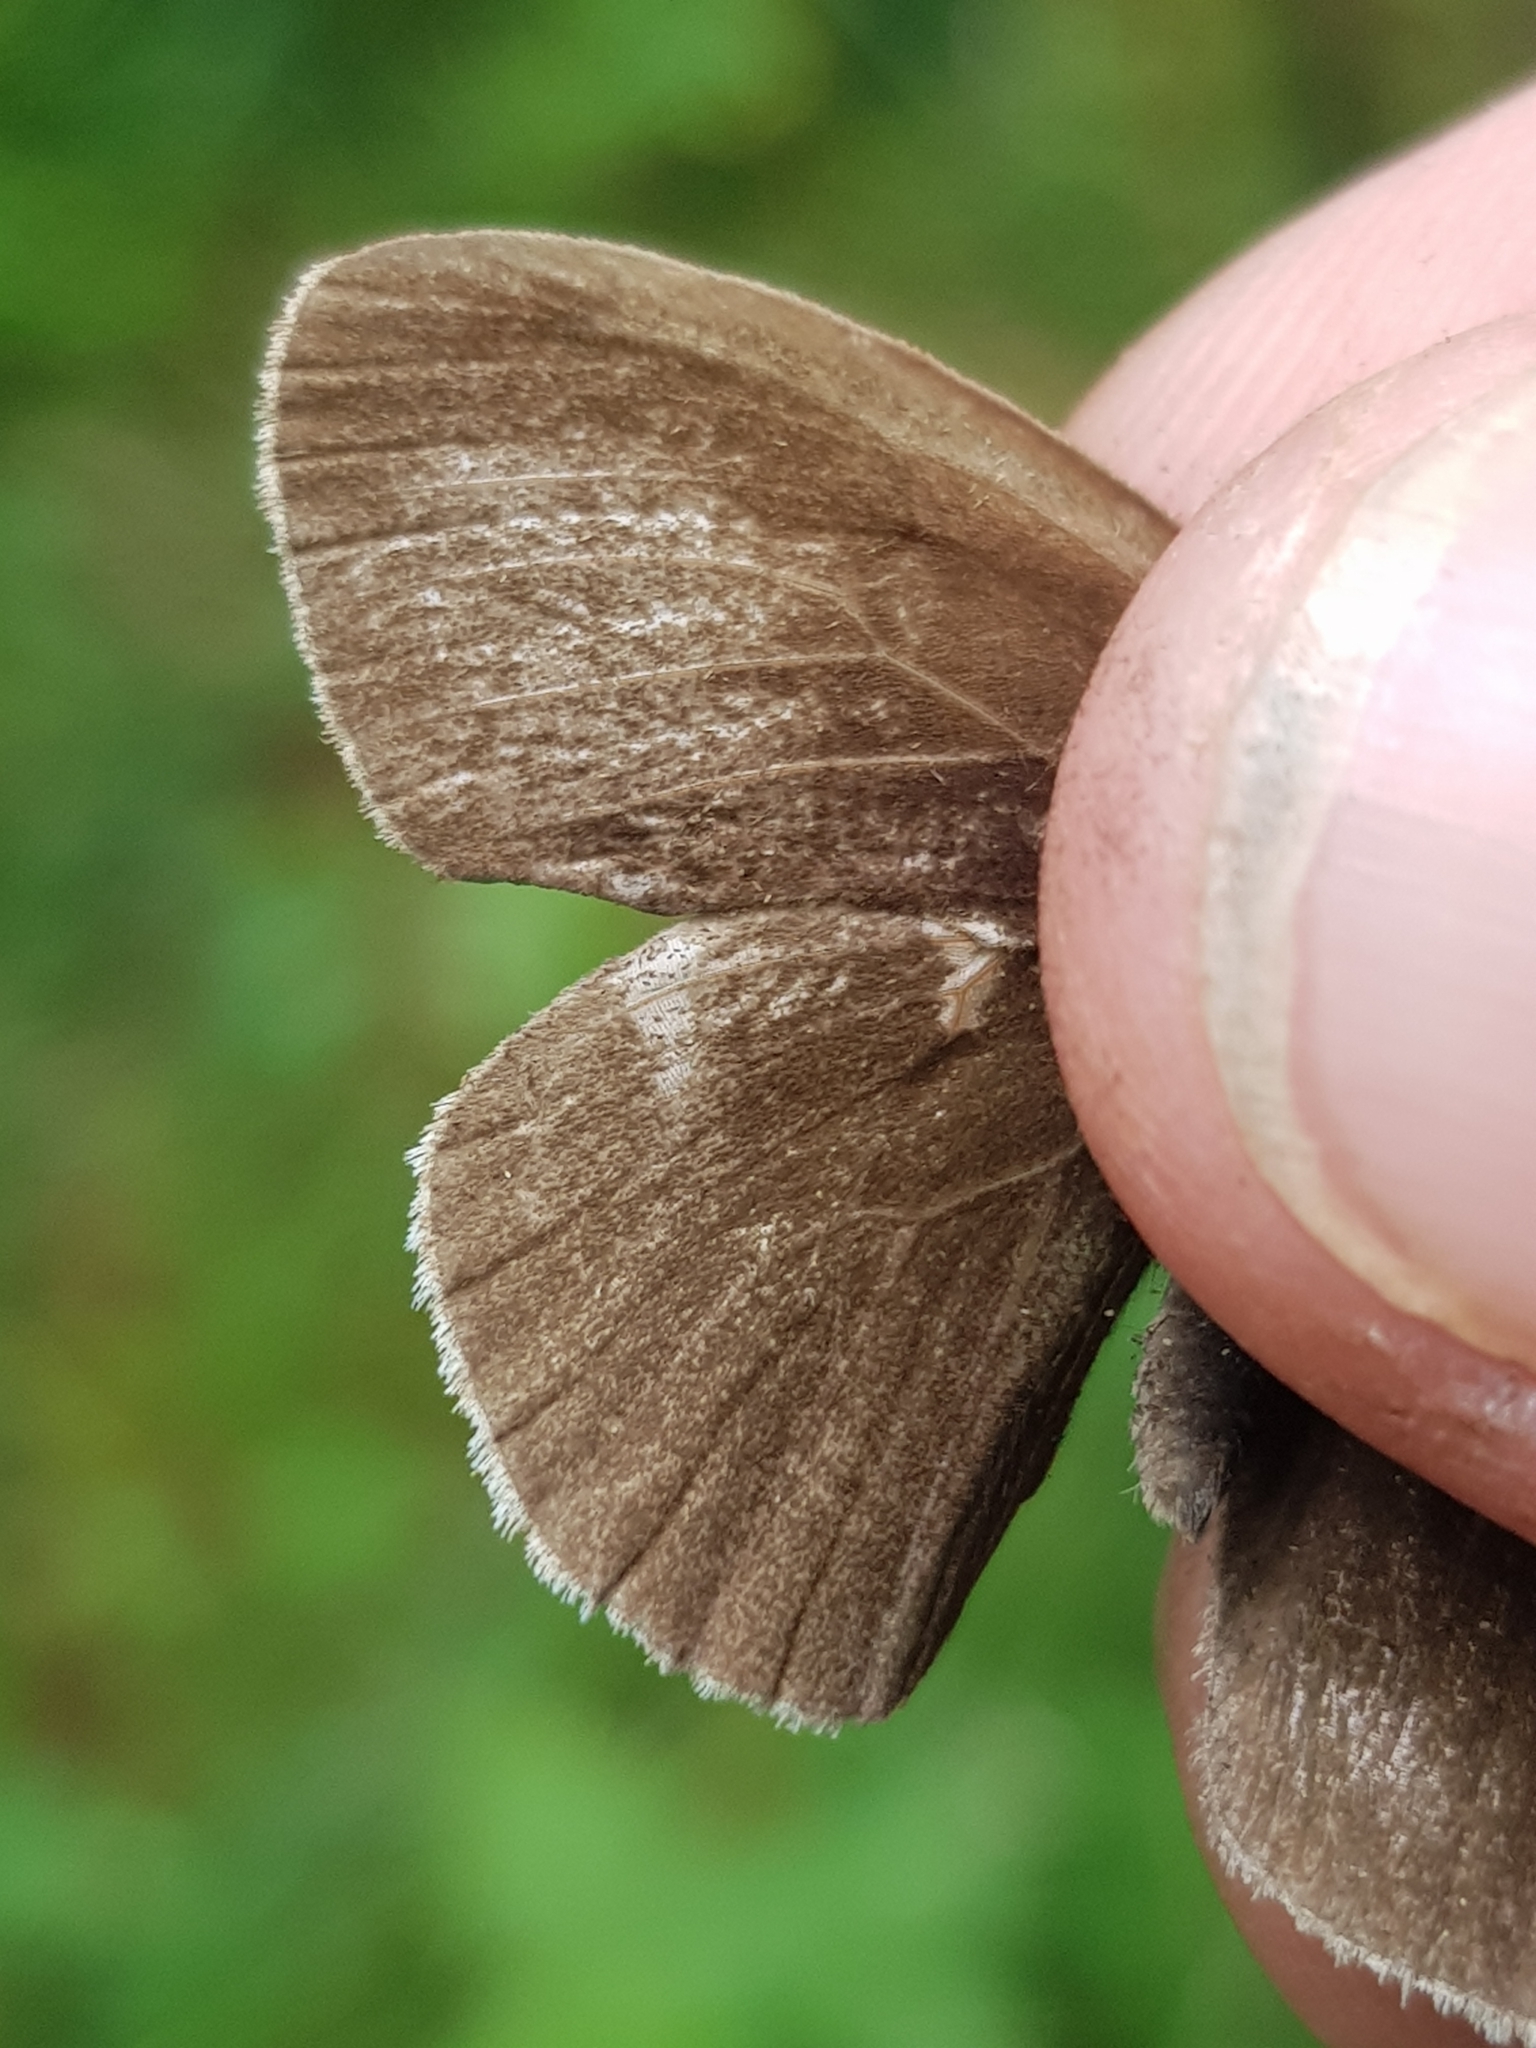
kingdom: Animalia
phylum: Arthropoda
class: Insecta
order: Lepidoptera
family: Nymphalidae
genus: Aphantopus
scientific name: Aphantopus hyperantus
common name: Ringlet
